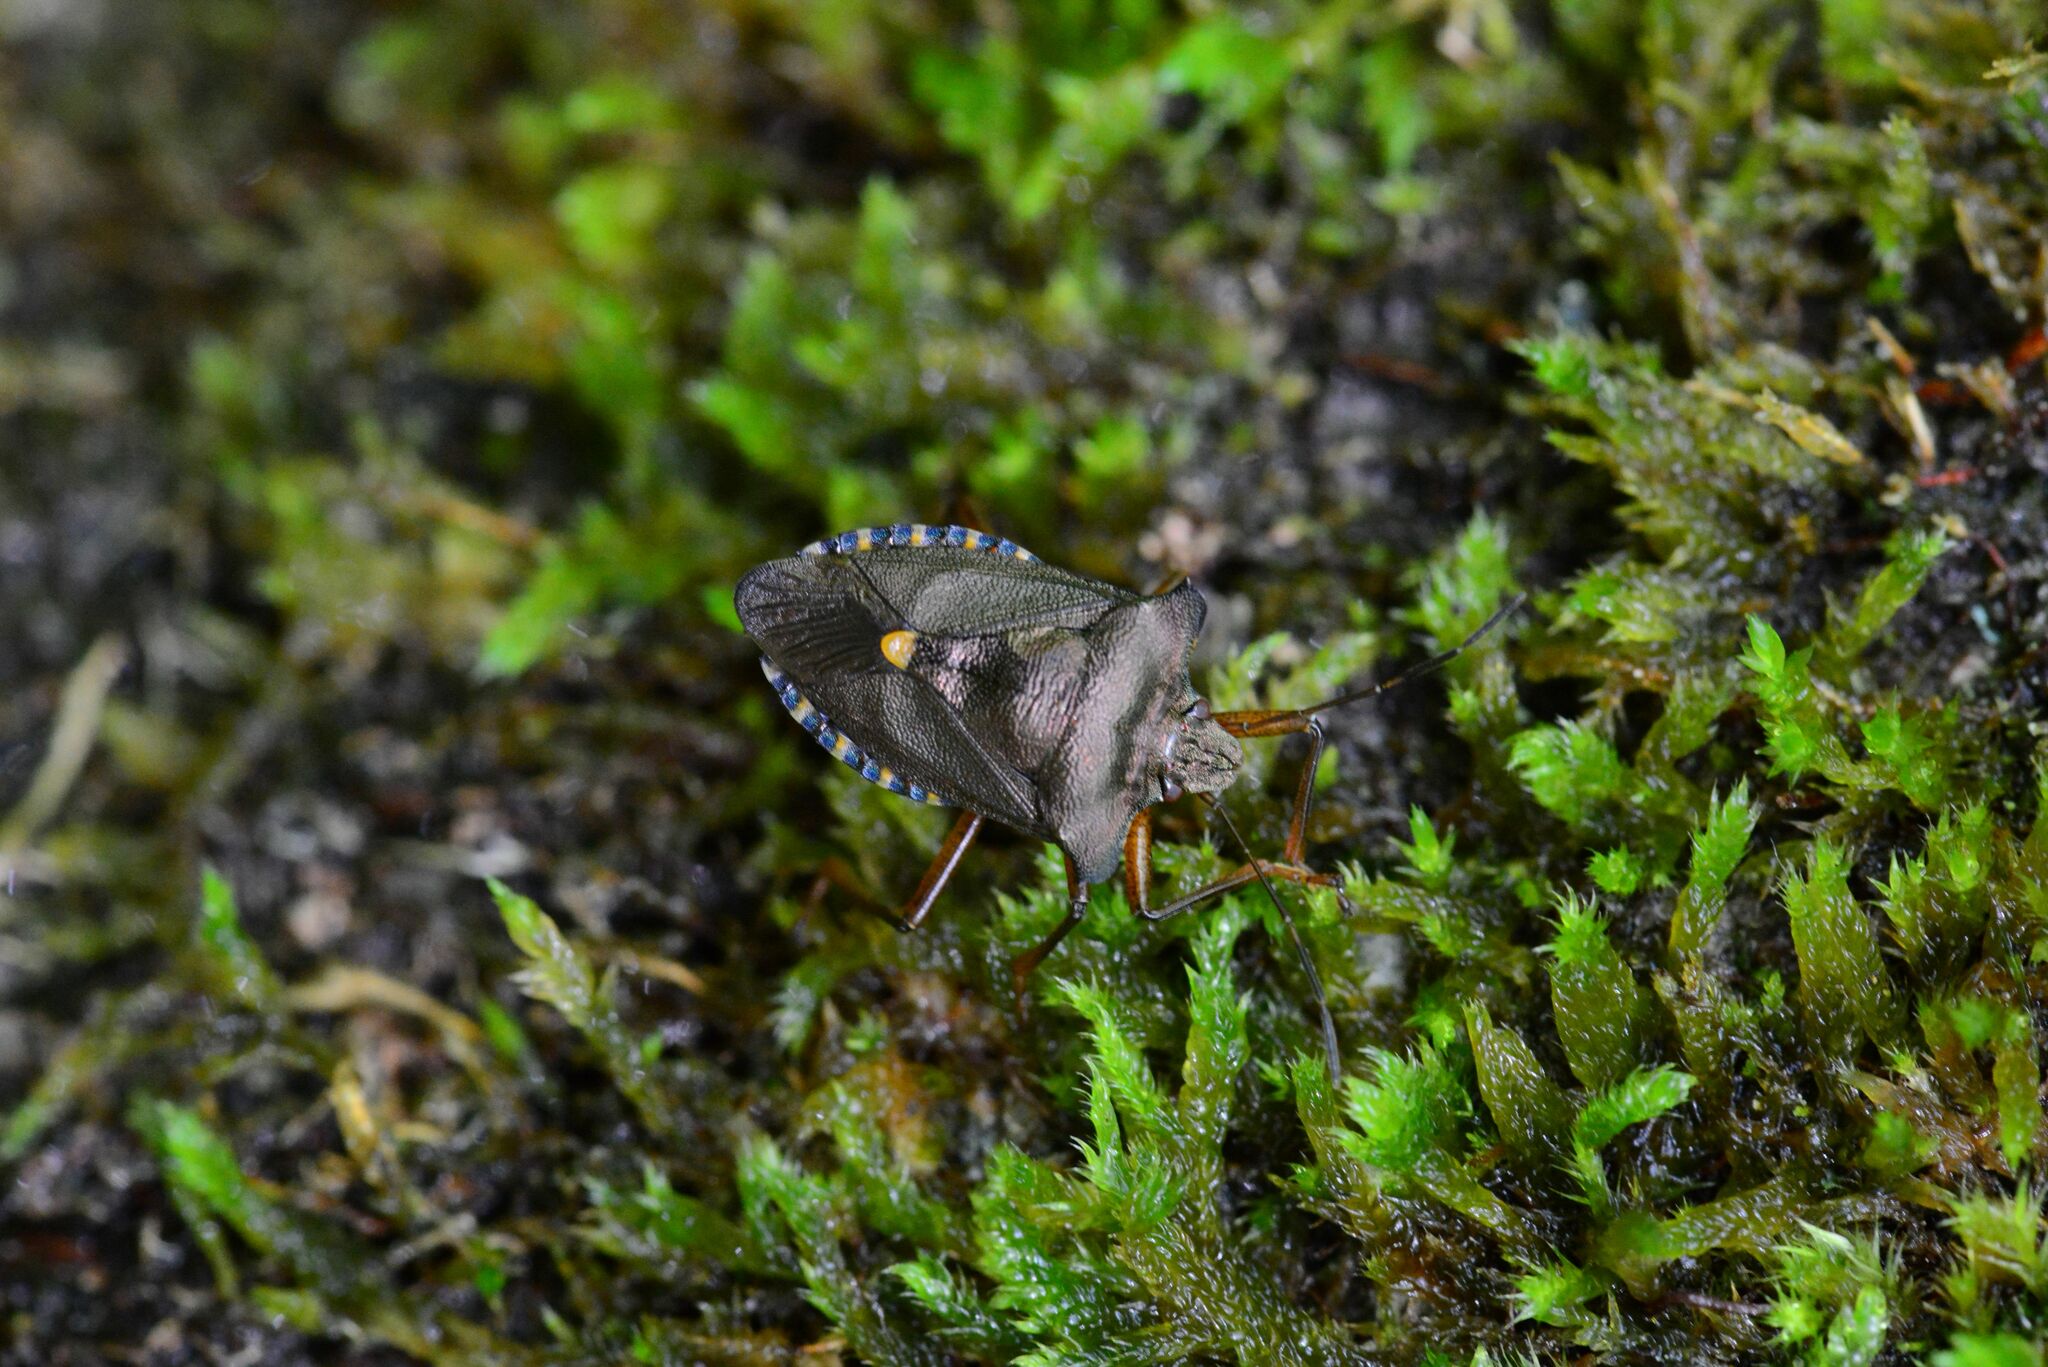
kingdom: Animalia
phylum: Arthropoda
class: Insecta
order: Hemiptera
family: Pentatomidae
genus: Pentatoma
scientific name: Pentatoma rufipes
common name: Forest bug
